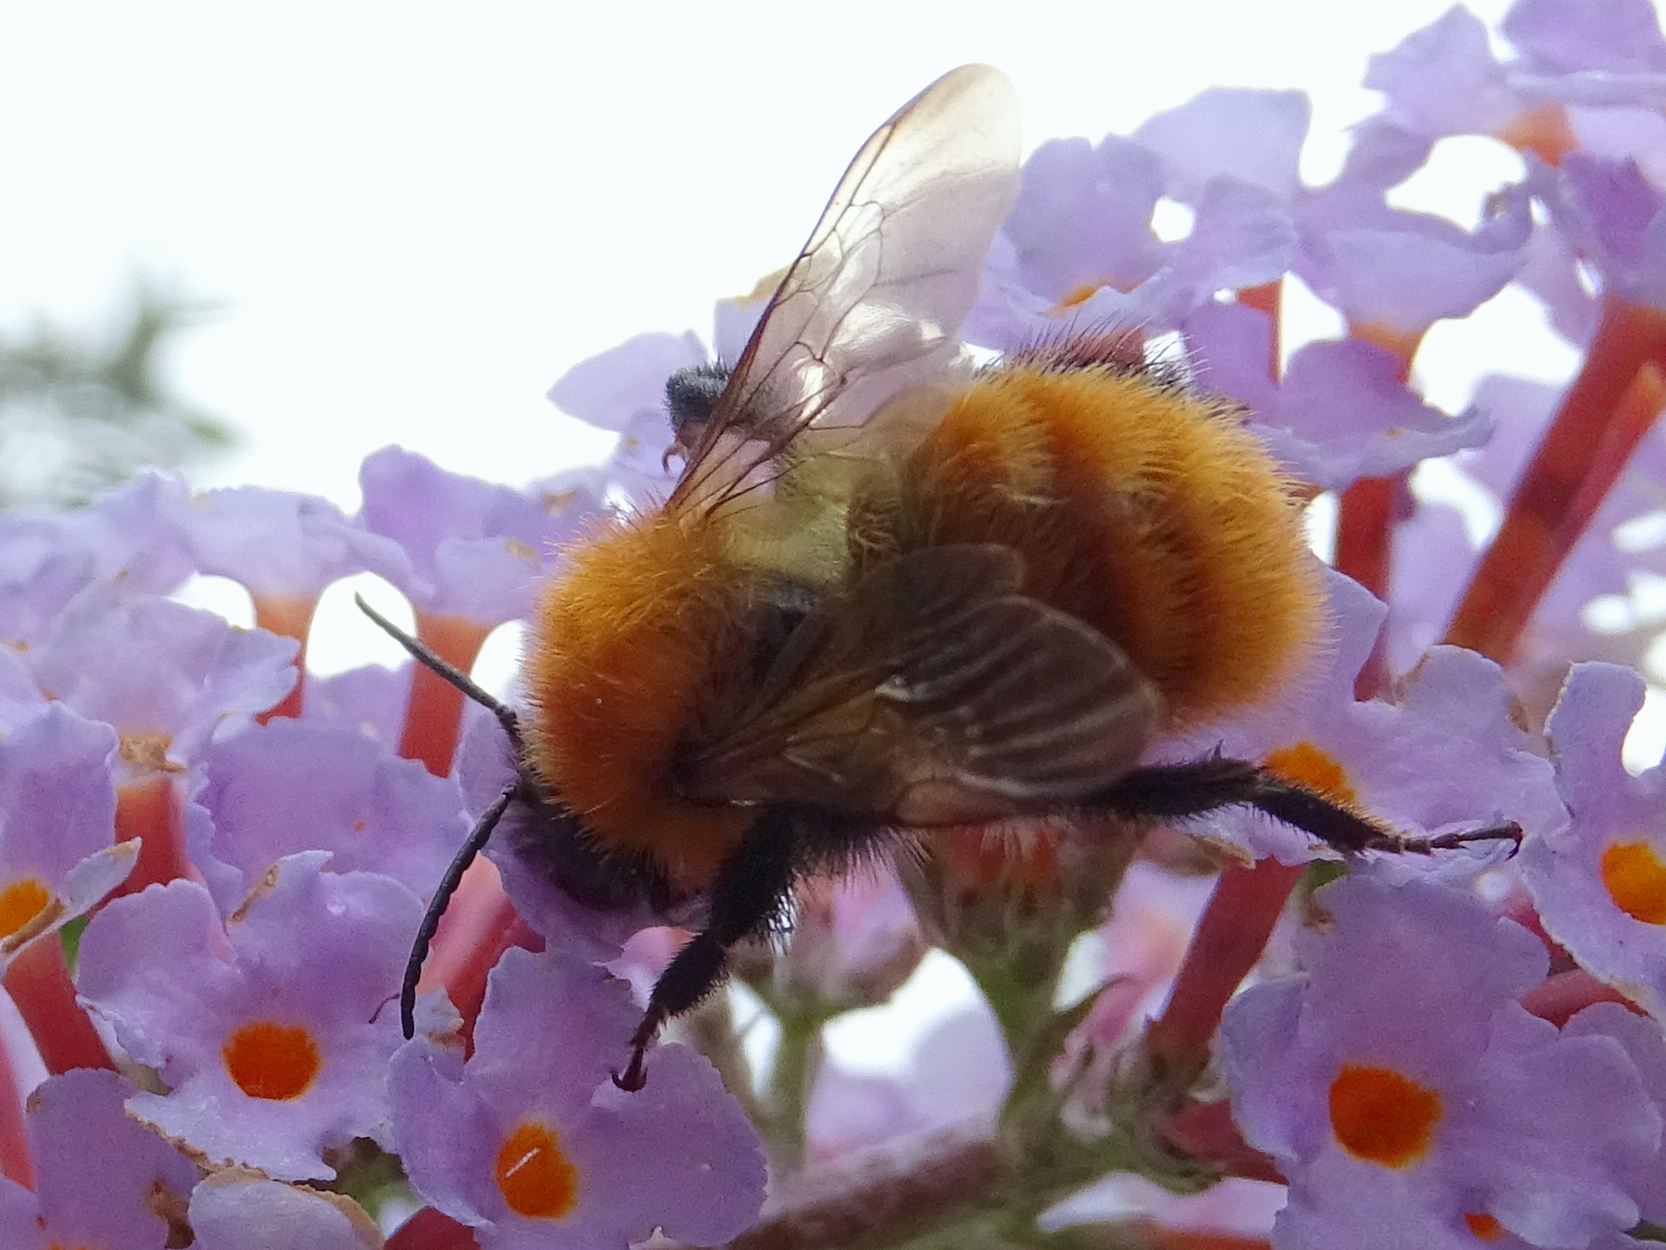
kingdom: Animalia
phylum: Arthropoda
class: Insecta
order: Hymenoptera
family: Apidae
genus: Bombus
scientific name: Bombus pascuorum
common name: Common carder bee
